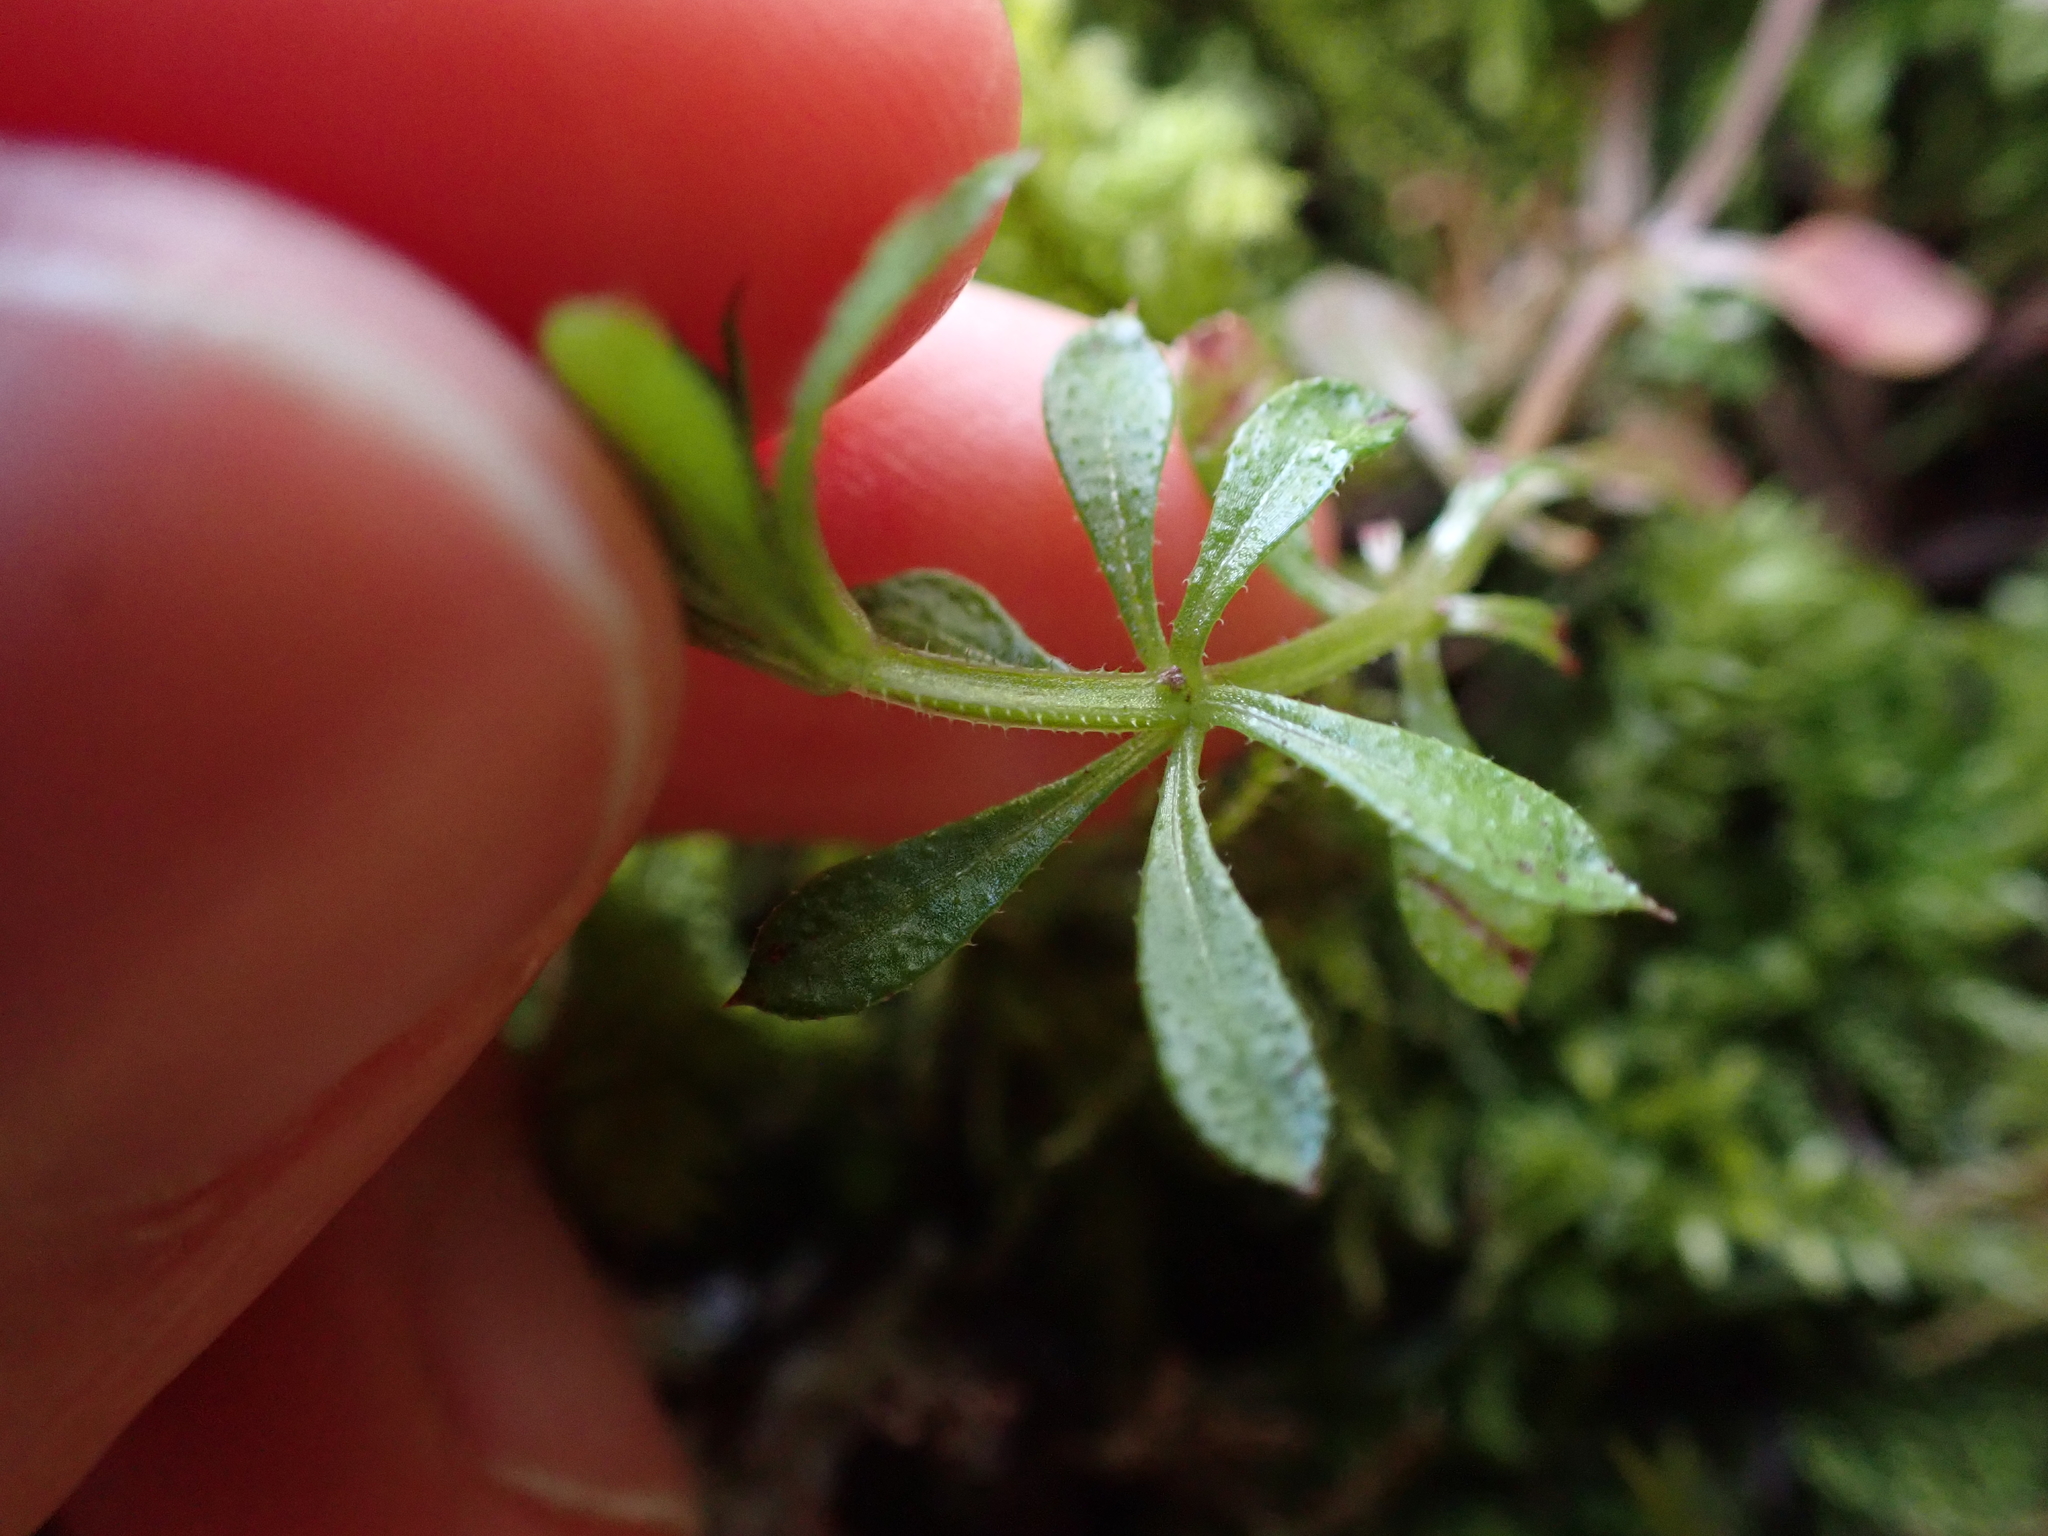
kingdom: Plantae
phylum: Tracheophyta
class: Magnoliopsida
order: Gentianales
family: Rubiaceae
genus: Galium
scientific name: Galium aparine
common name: Cleavers
